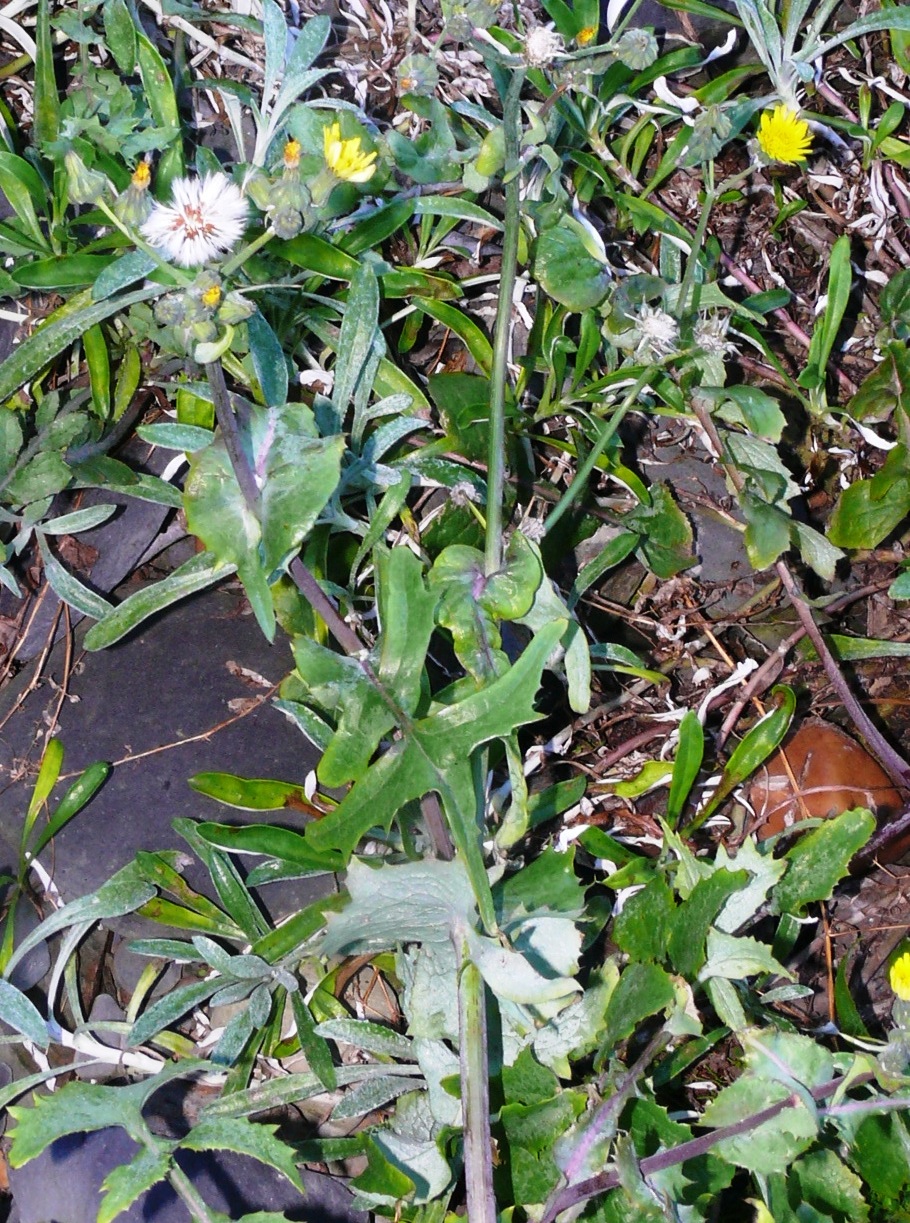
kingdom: Plantae
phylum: Tracheophyta
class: Magnoliopsida
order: Asterales
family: Asteraceae
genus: Sonchus
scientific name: Sonchus oleraceus
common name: Common sowthistle
